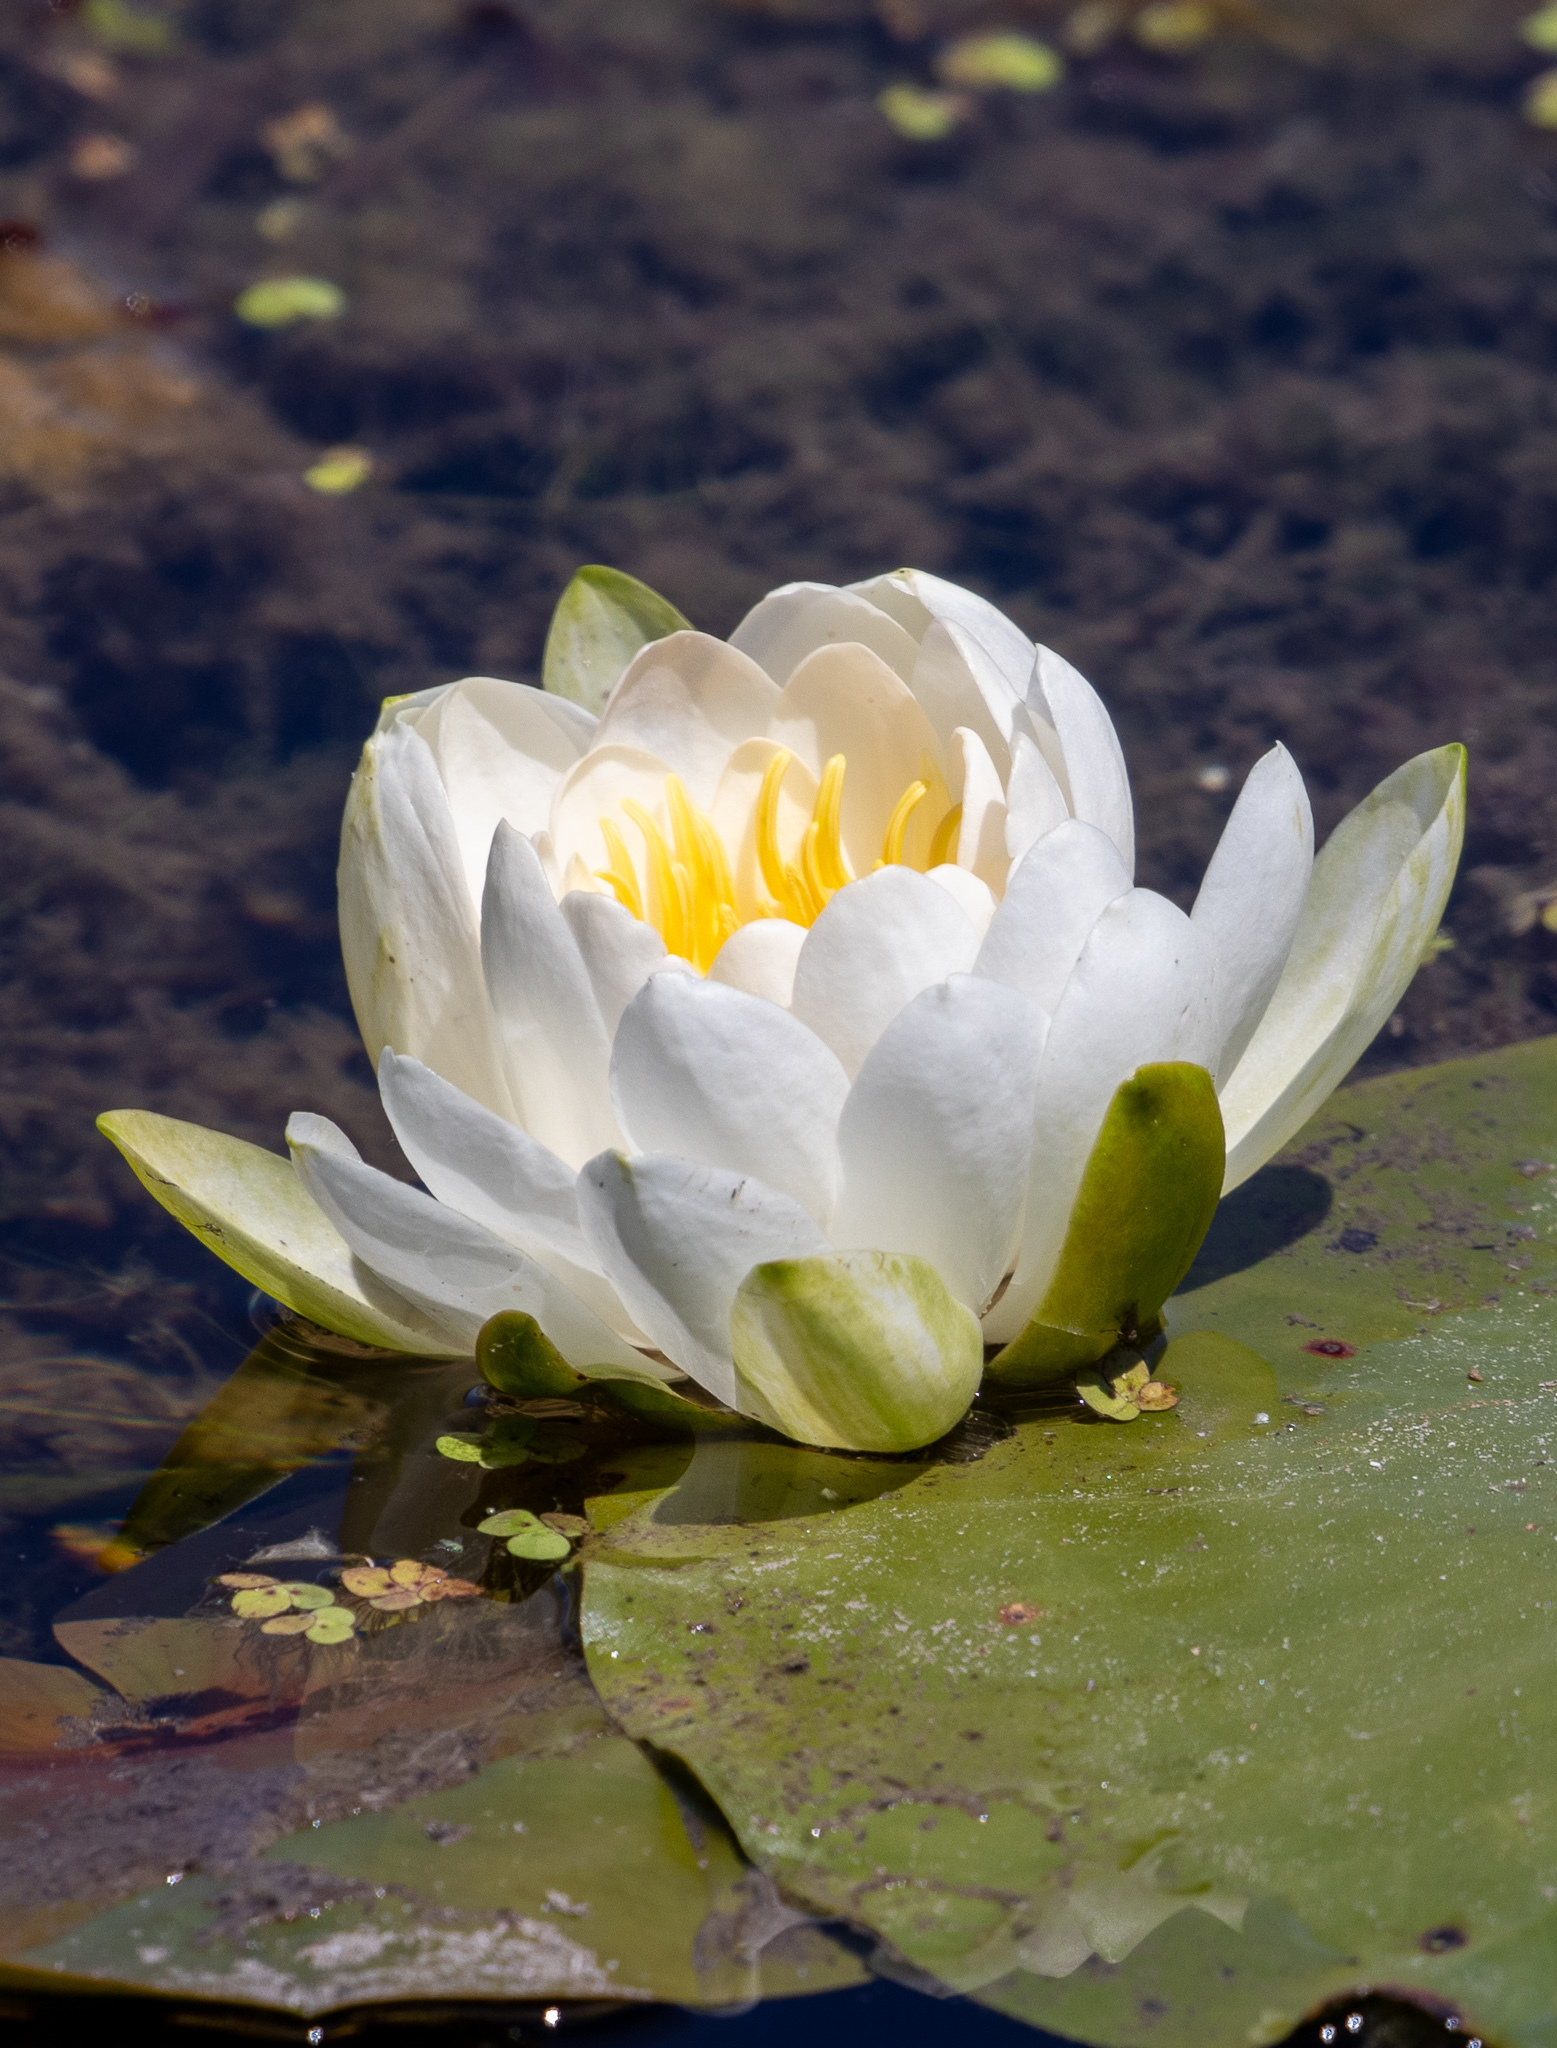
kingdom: Plantae
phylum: Tracheophyta
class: Magnoliopsida
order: Nymphaeales
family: Nymphaeaceae
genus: Nymphaea
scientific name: Nymphaea odorata
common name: Fragrant water-lily
